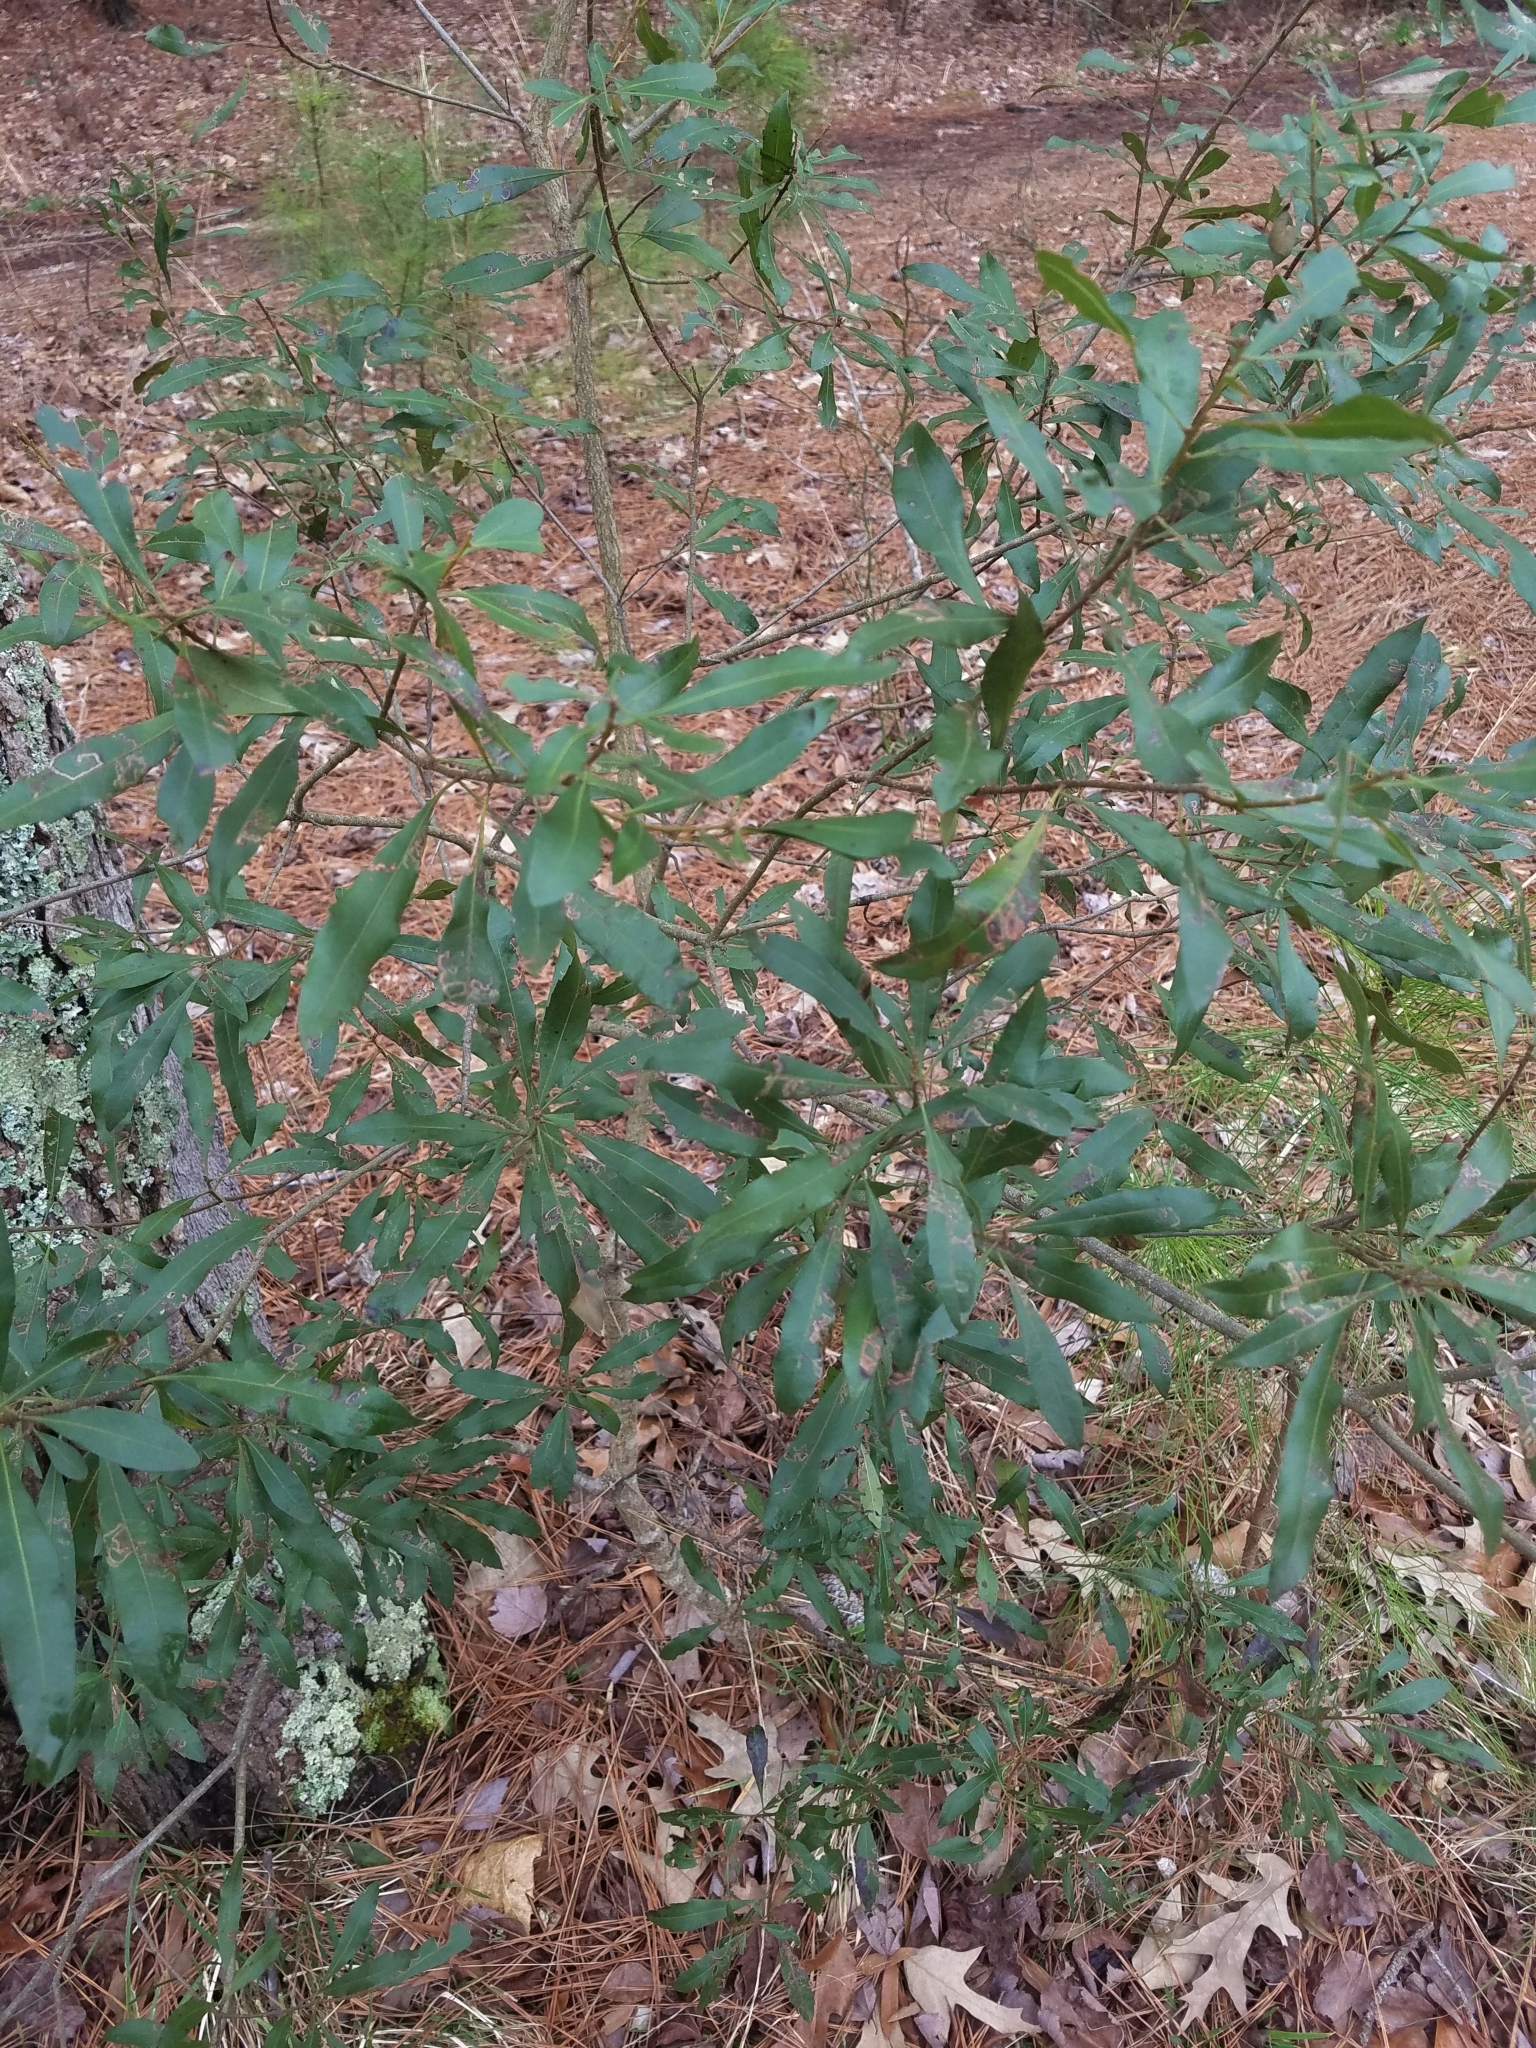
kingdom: Plantae
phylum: Tracheophyta
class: Magnoliopsida
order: Fagales
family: Myricaceae
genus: Morella
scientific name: Morella cerifera
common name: Wax myrtle
